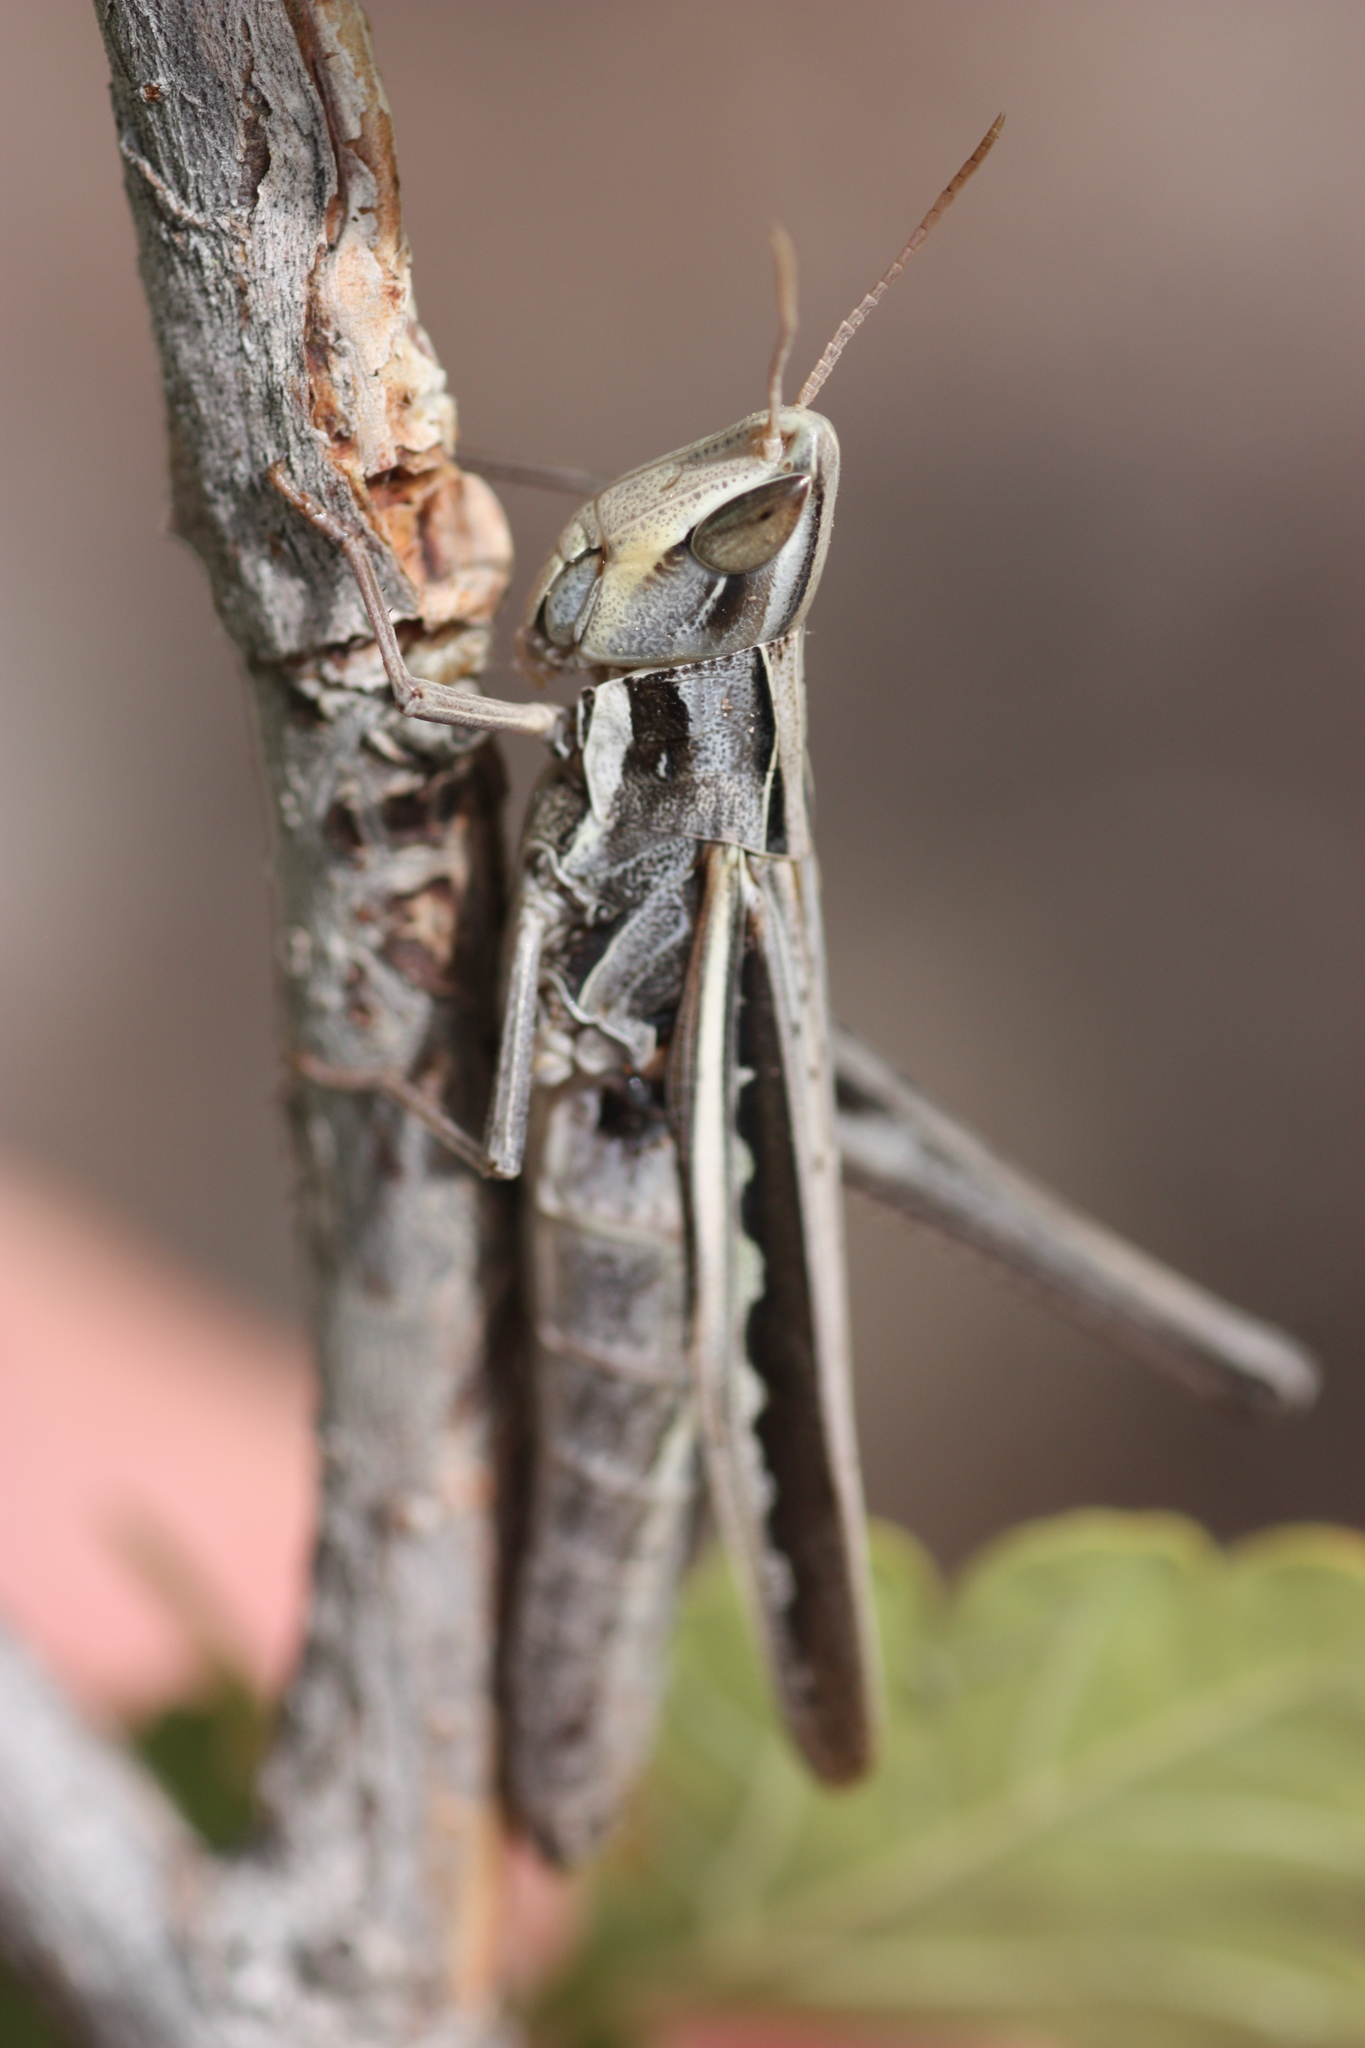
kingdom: Animalia
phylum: Arthropoda
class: Insecta
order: Orthoptera
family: Acrididae
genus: Syrbula
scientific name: Syrbula montezuma
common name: Montezuma's grasshopper
